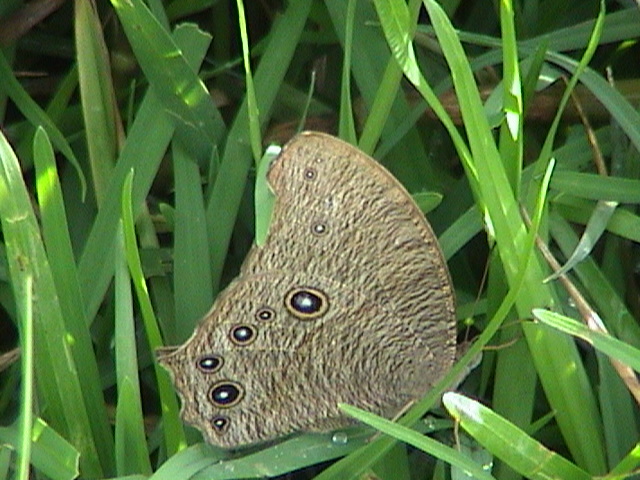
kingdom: Animalia
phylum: Arthropoda
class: Insecta
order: Lepidoptera
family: Nymphalidae
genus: Melanitis
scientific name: Melanitis leda
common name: Twilight brown
